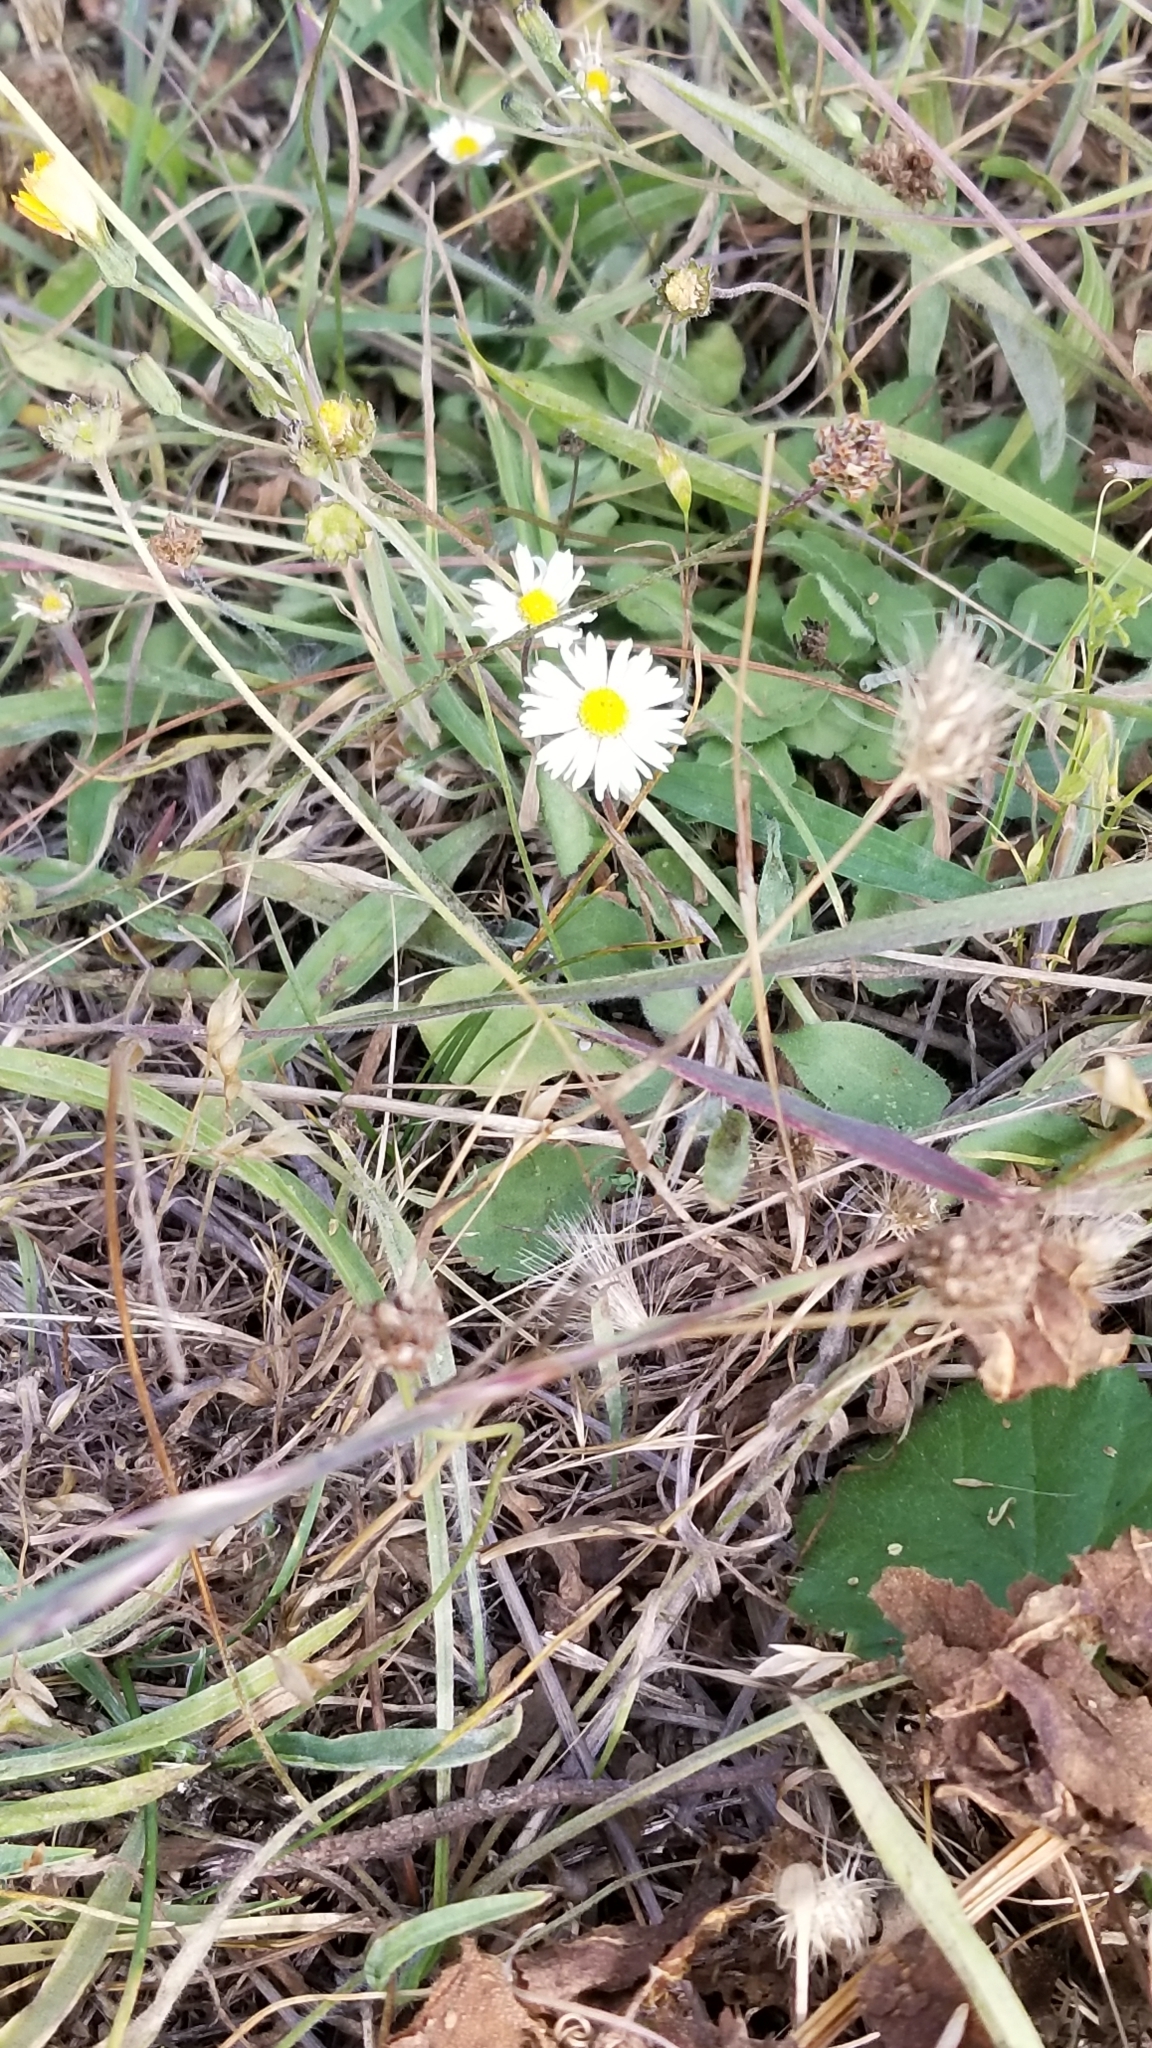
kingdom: Plantae
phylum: Tracheophyta
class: Magnoliopsida
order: Asterales
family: Asteraceae
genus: Bellis
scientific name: Bellis perennis
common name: Lawndaisy
